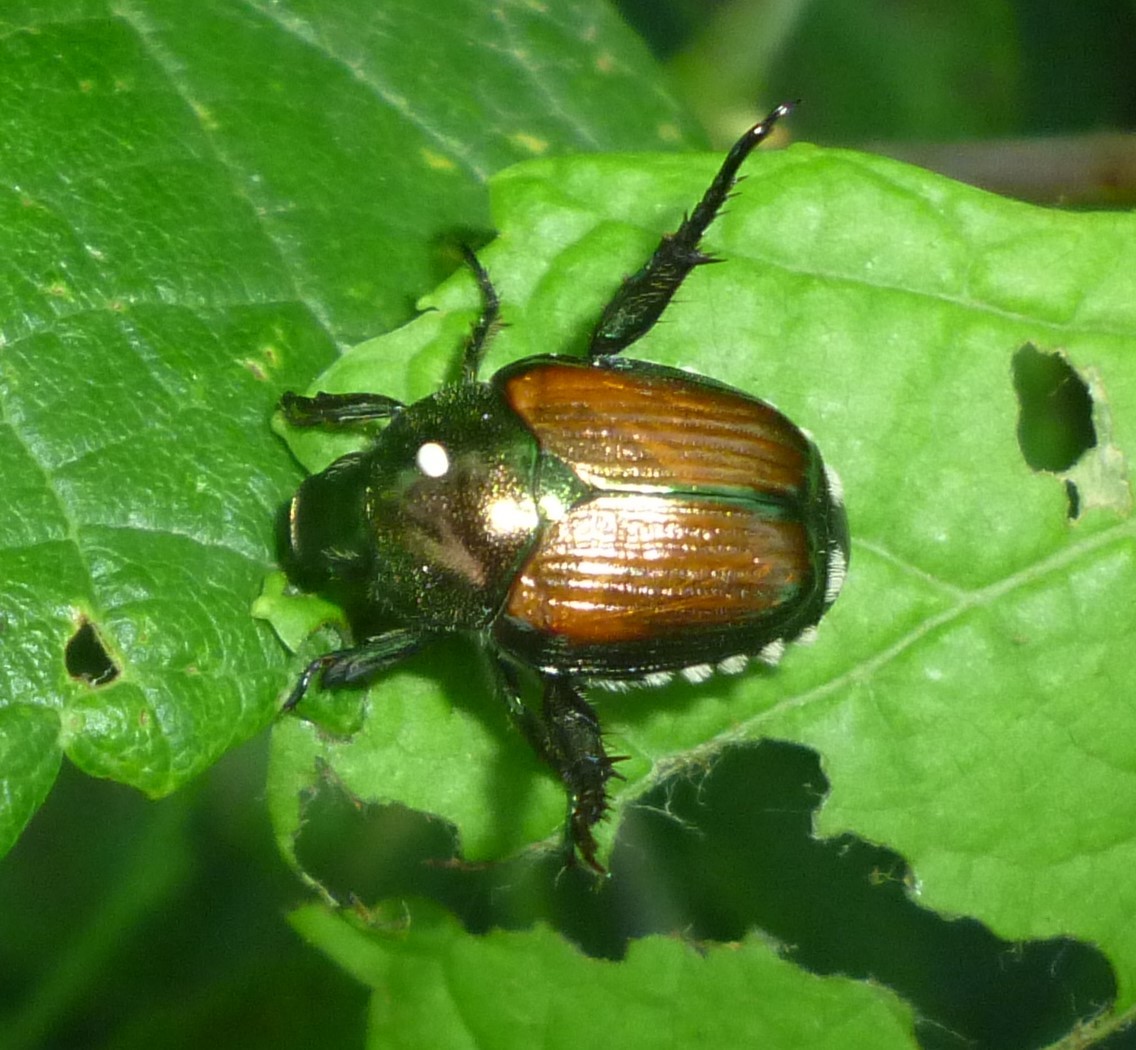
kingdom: Animalia
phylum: Arthropoda
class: Insecta
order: Diptera
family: Tachinidae
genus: Istocheta
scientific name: Istocheta aldrichi
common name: Parasitic wasp
